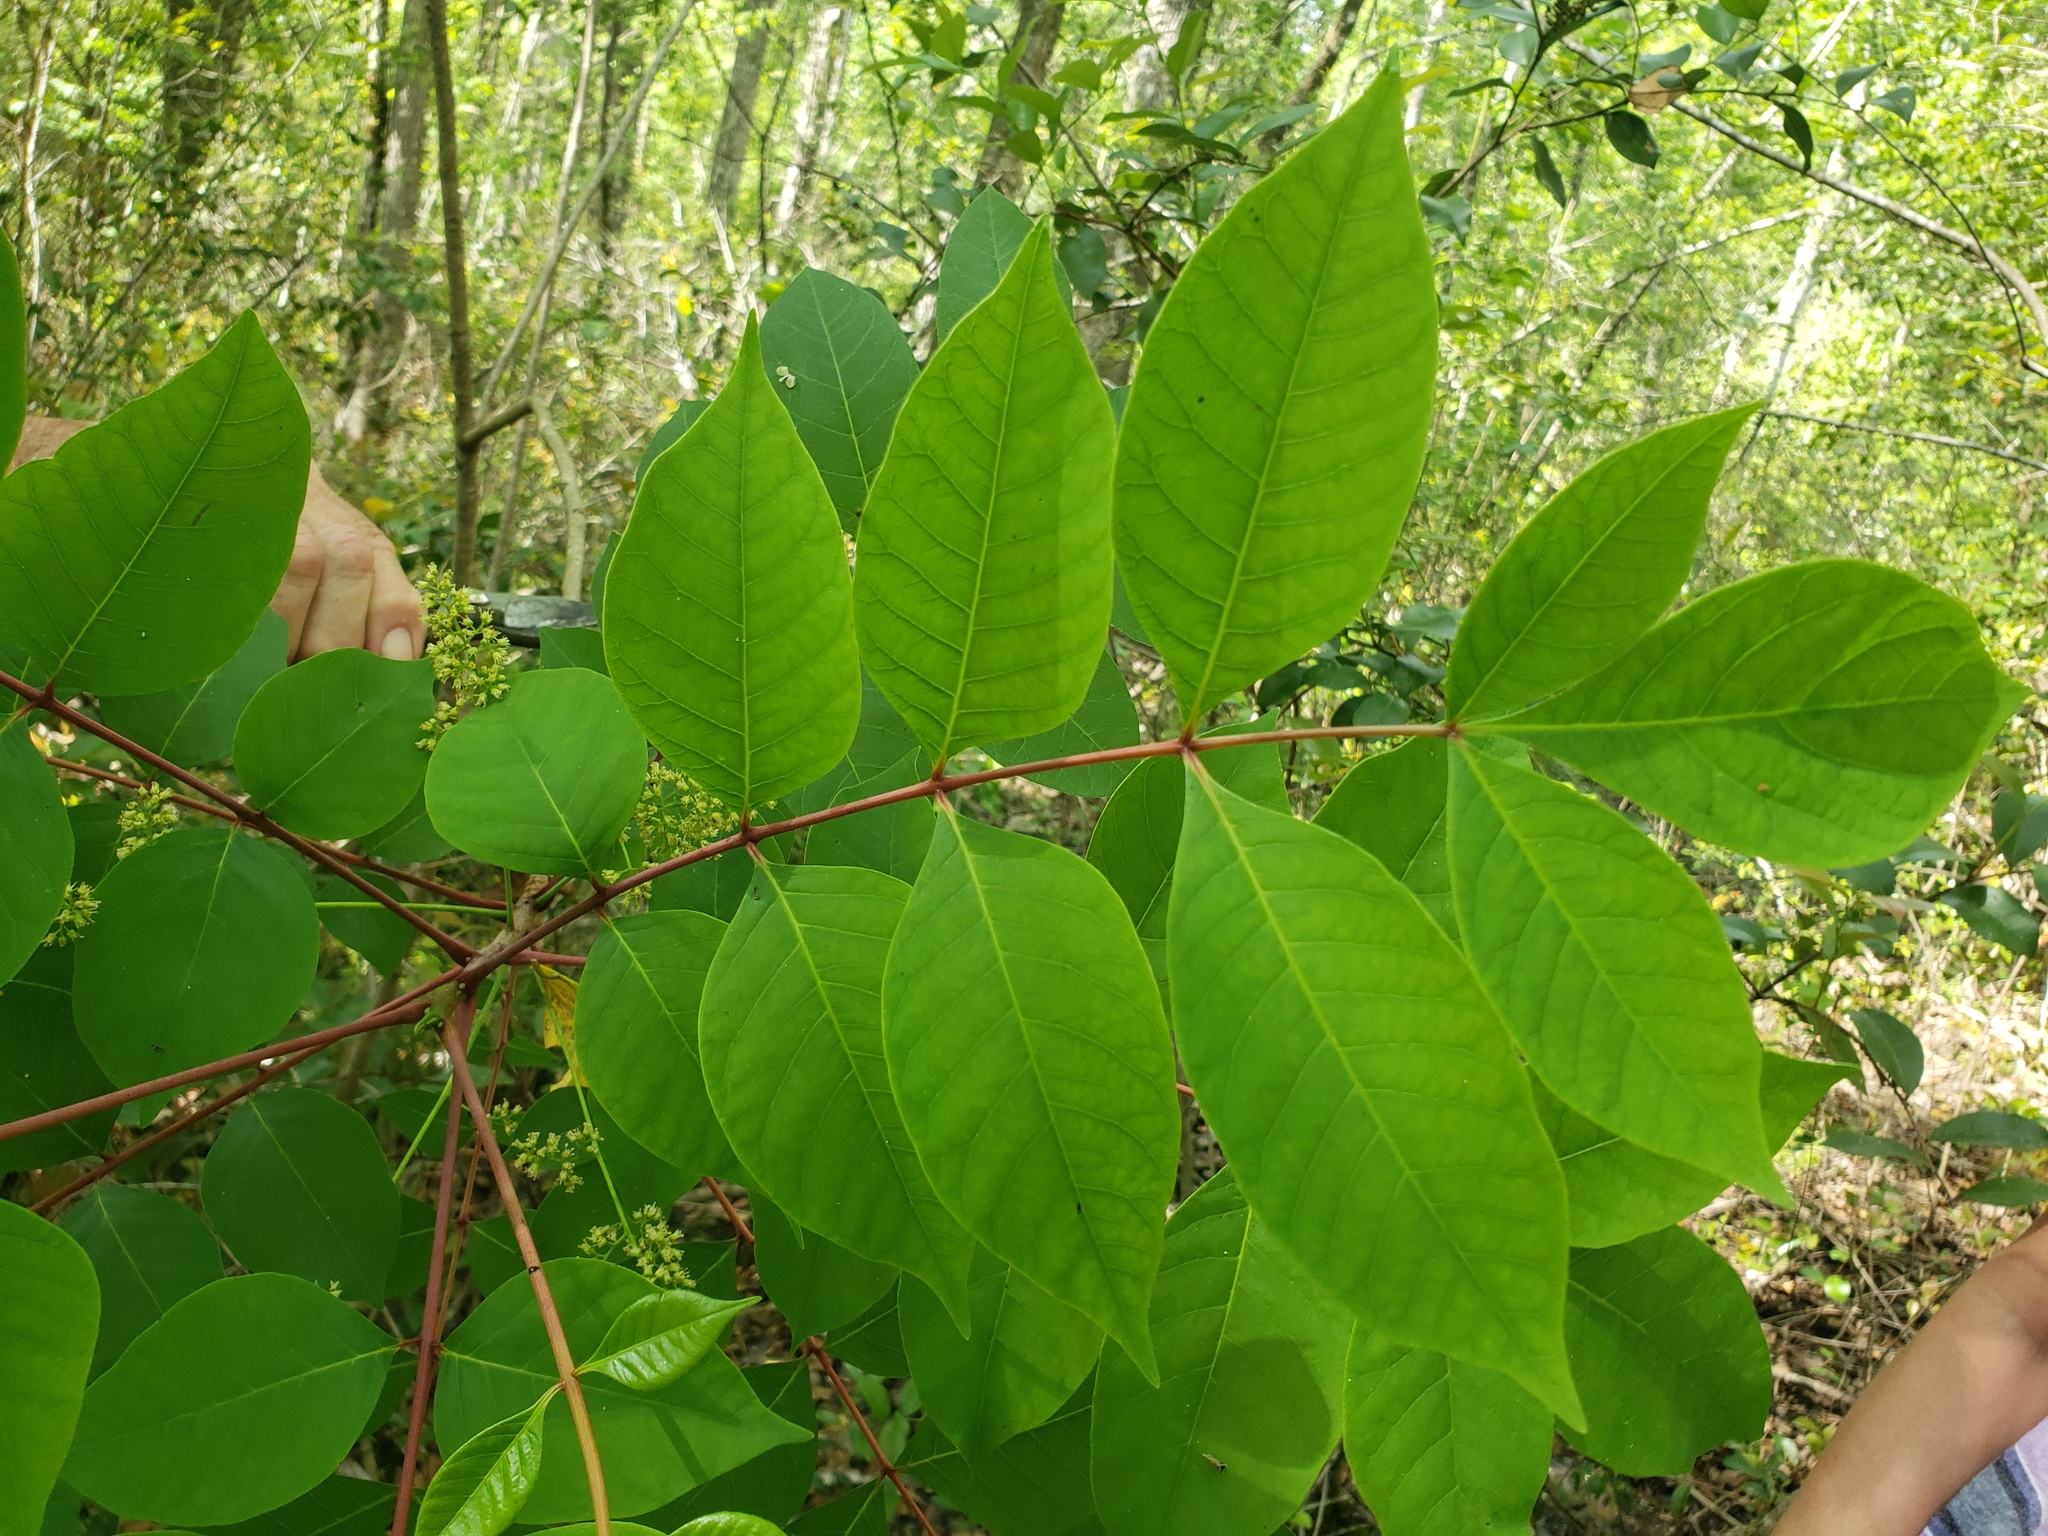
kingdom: Plantae
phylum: Tracheophyta
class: Magnoliopsida
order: Sapindales
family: Anacardiaceae
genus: Toxicodendron
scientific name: Toxicodendron vernix
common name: Poison sumac
